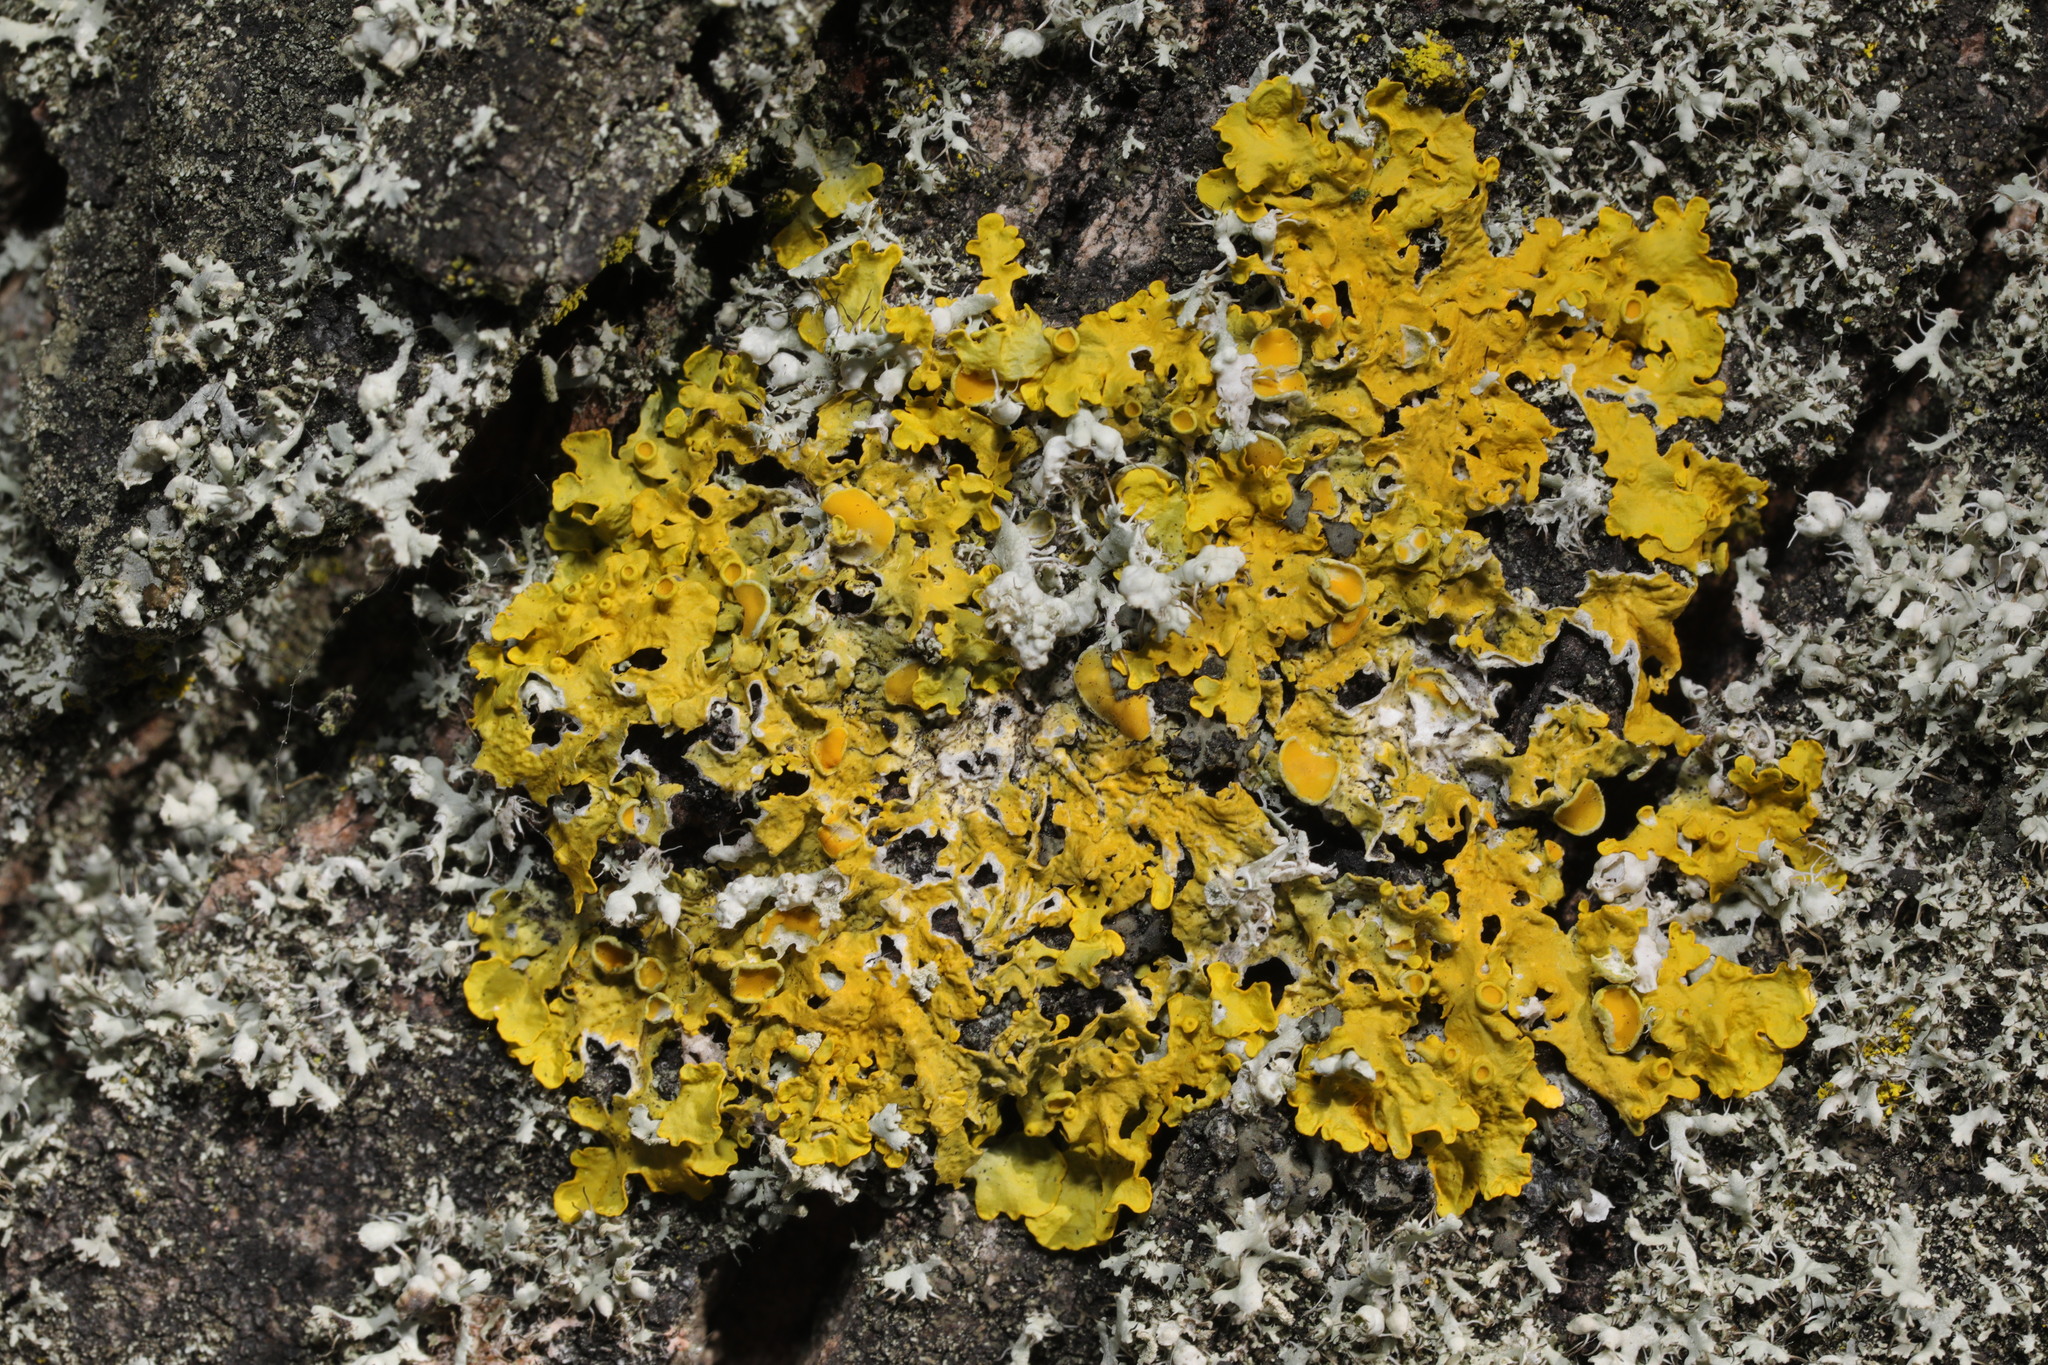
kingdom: Fungi
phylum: Ascomycota
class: Lecanoromycetes
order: Teloschistales
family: Teloschistaceae
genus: Xanthoria
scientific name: Xanthoria parietina
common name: Common orange lichen
